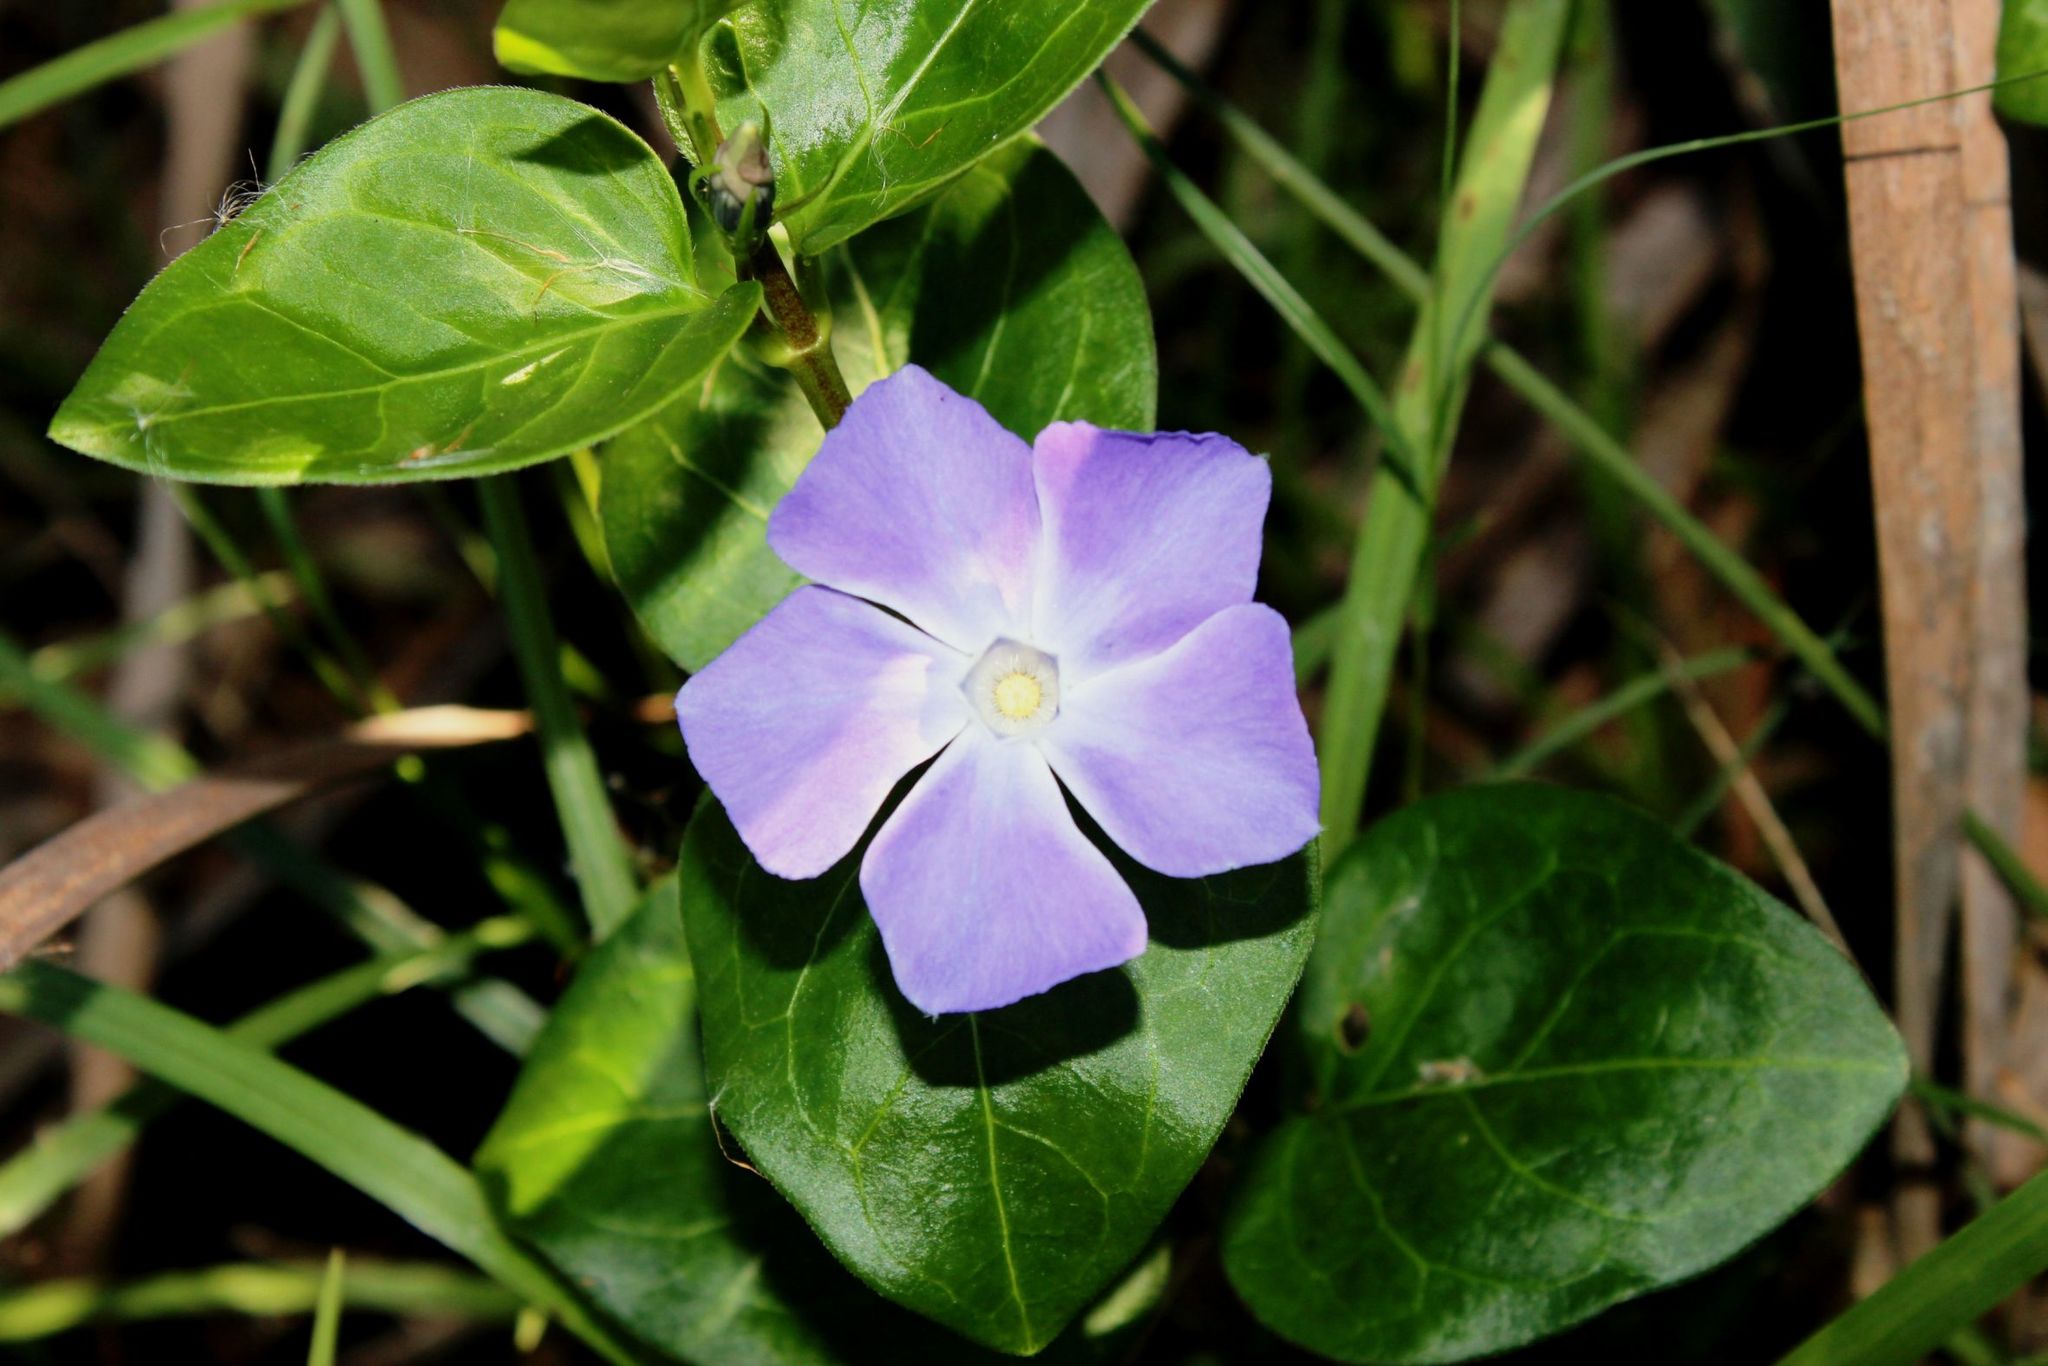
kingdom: Plantae
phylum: Tracheophyta
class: Magnoliopsida
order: Gentianales
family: Apocynaceae
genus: Vinca
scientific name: Vinca major
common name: Greater periwinkle
